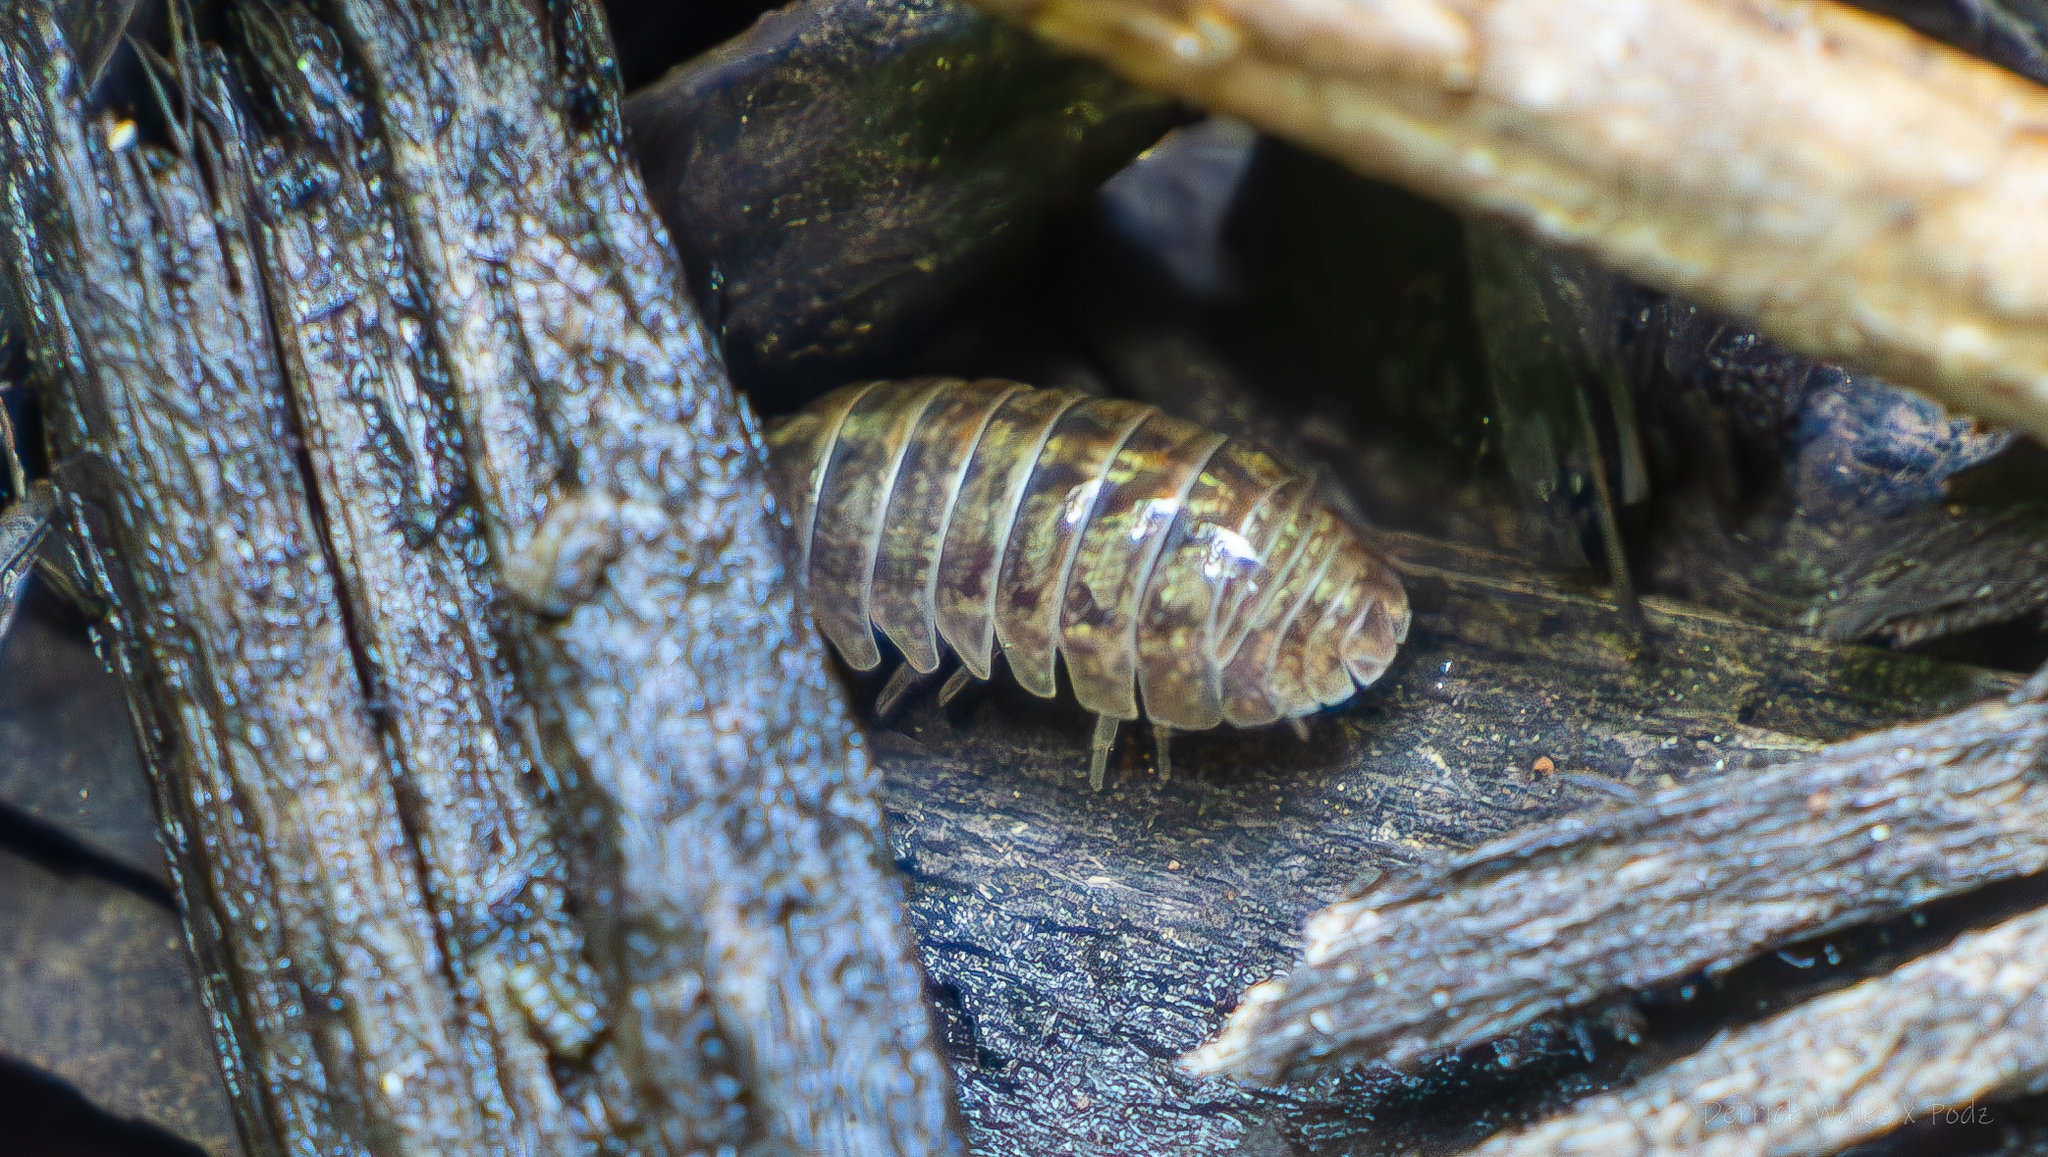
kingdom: Animalia
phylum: Arthropoda
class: Malacostraca
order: Isopoda
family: Armadillidiidae
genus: Armadillidium
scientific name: Armadillidium vulgare
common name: Common pill woodlouse
